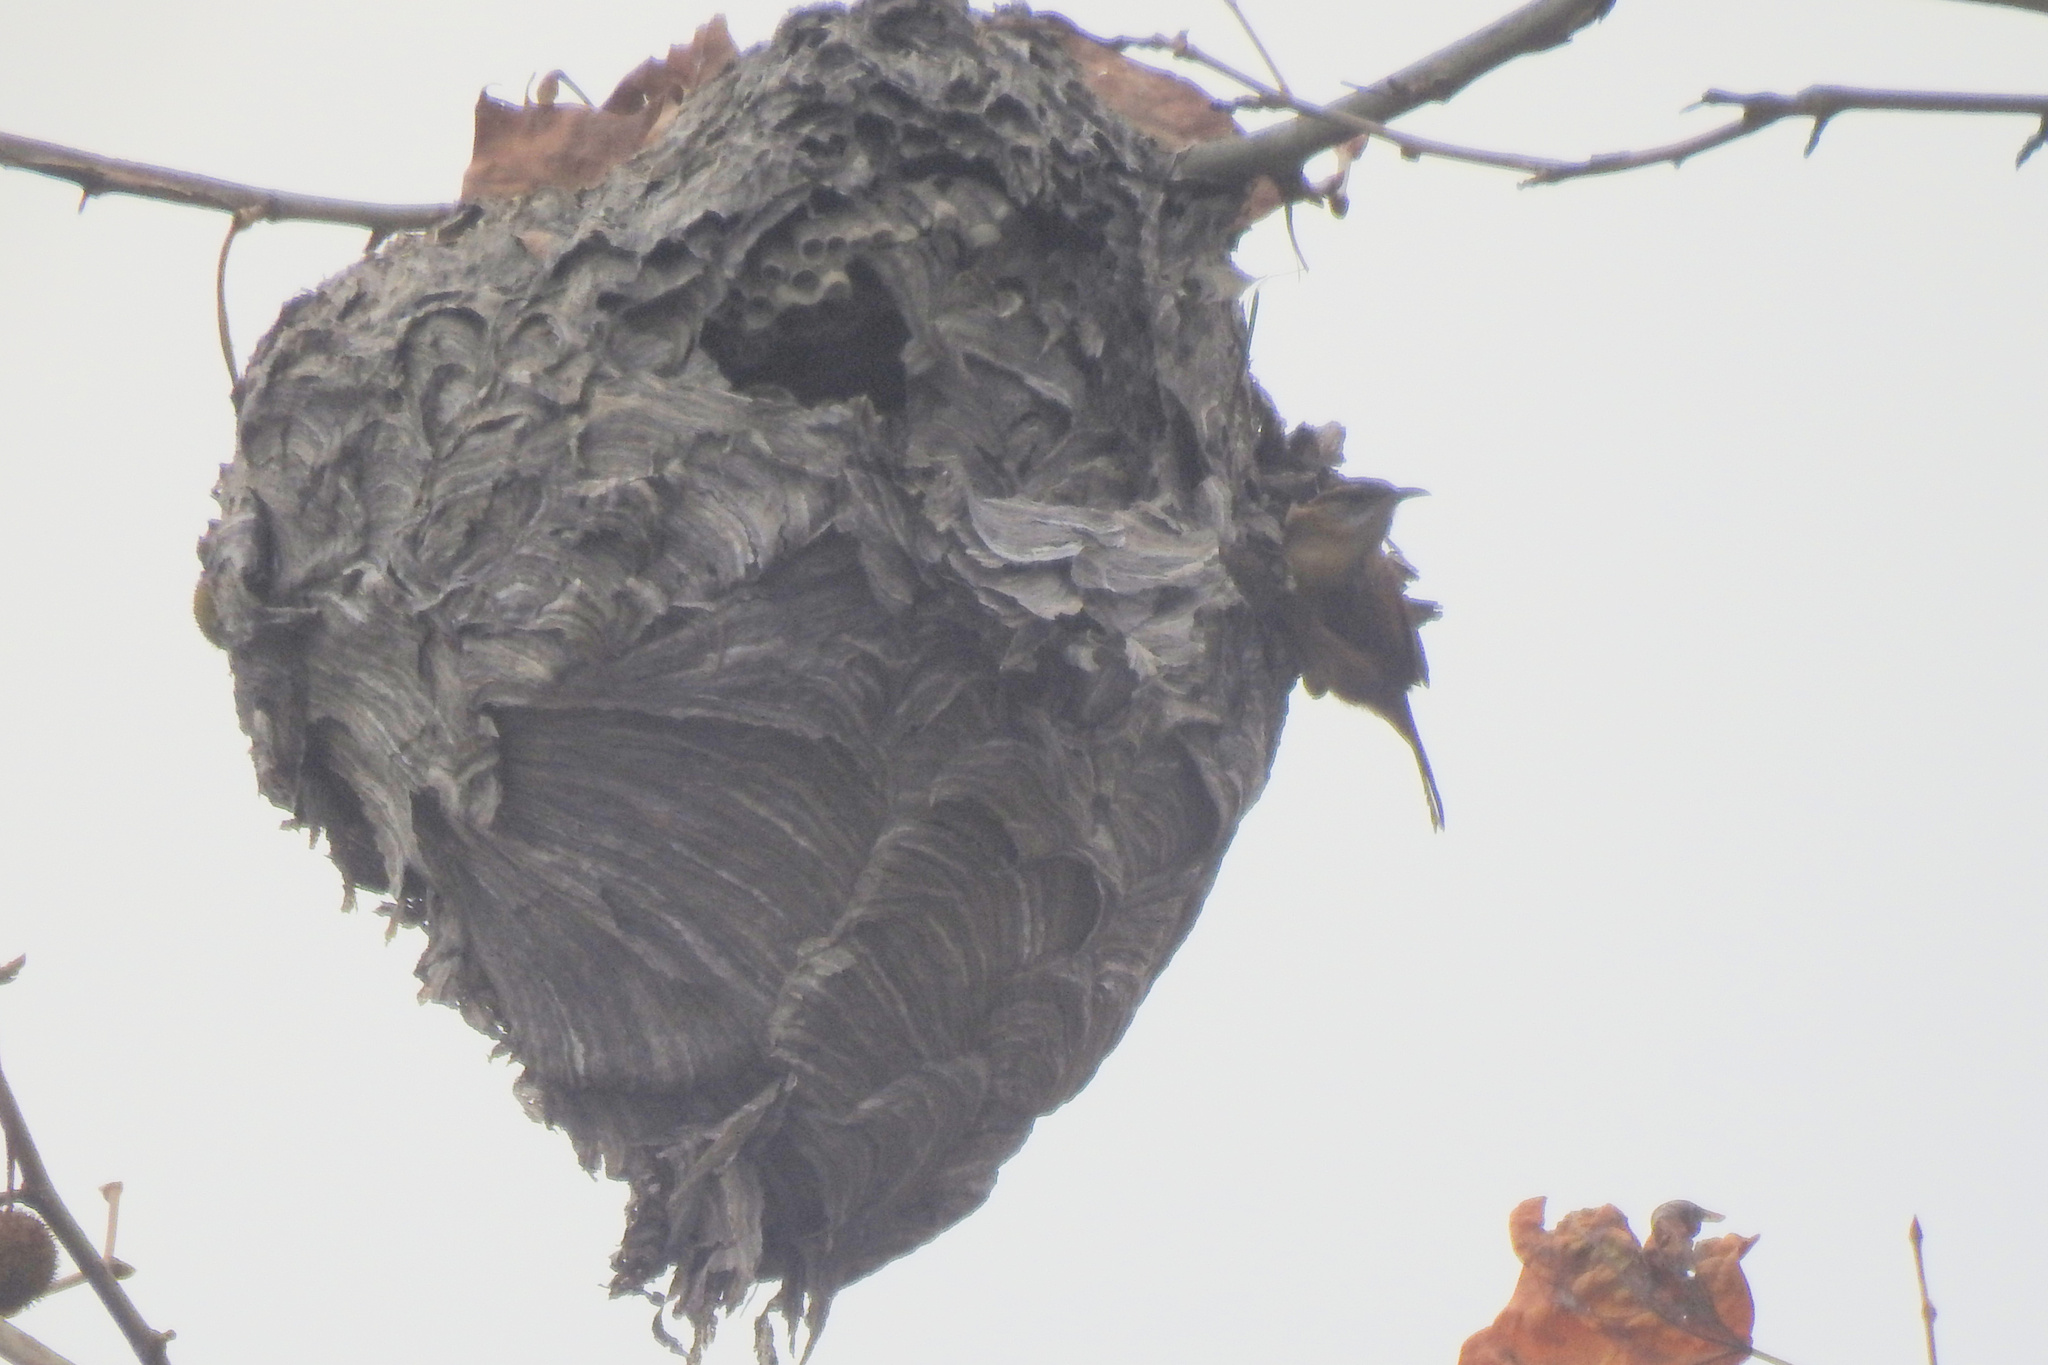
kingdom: Animalia
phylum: Chordata
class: Aves
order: Passeriformes
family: Troglodytidae
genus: Thryothorus
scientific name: Thryothorus ludovicianus
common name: Carolina wren
